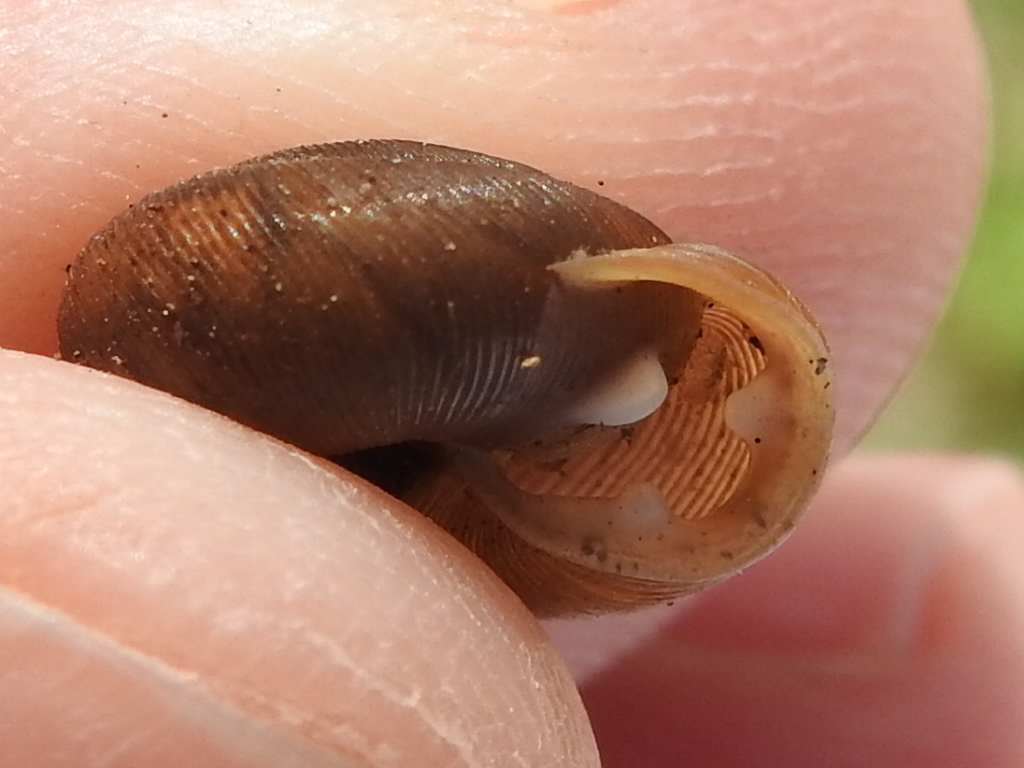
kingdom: Animalia
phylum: Mollusca
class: Gastropoda
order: Stylommatophora
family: Polygyridae
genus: Triodopsis
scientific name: Triodopsis hopetonensis
